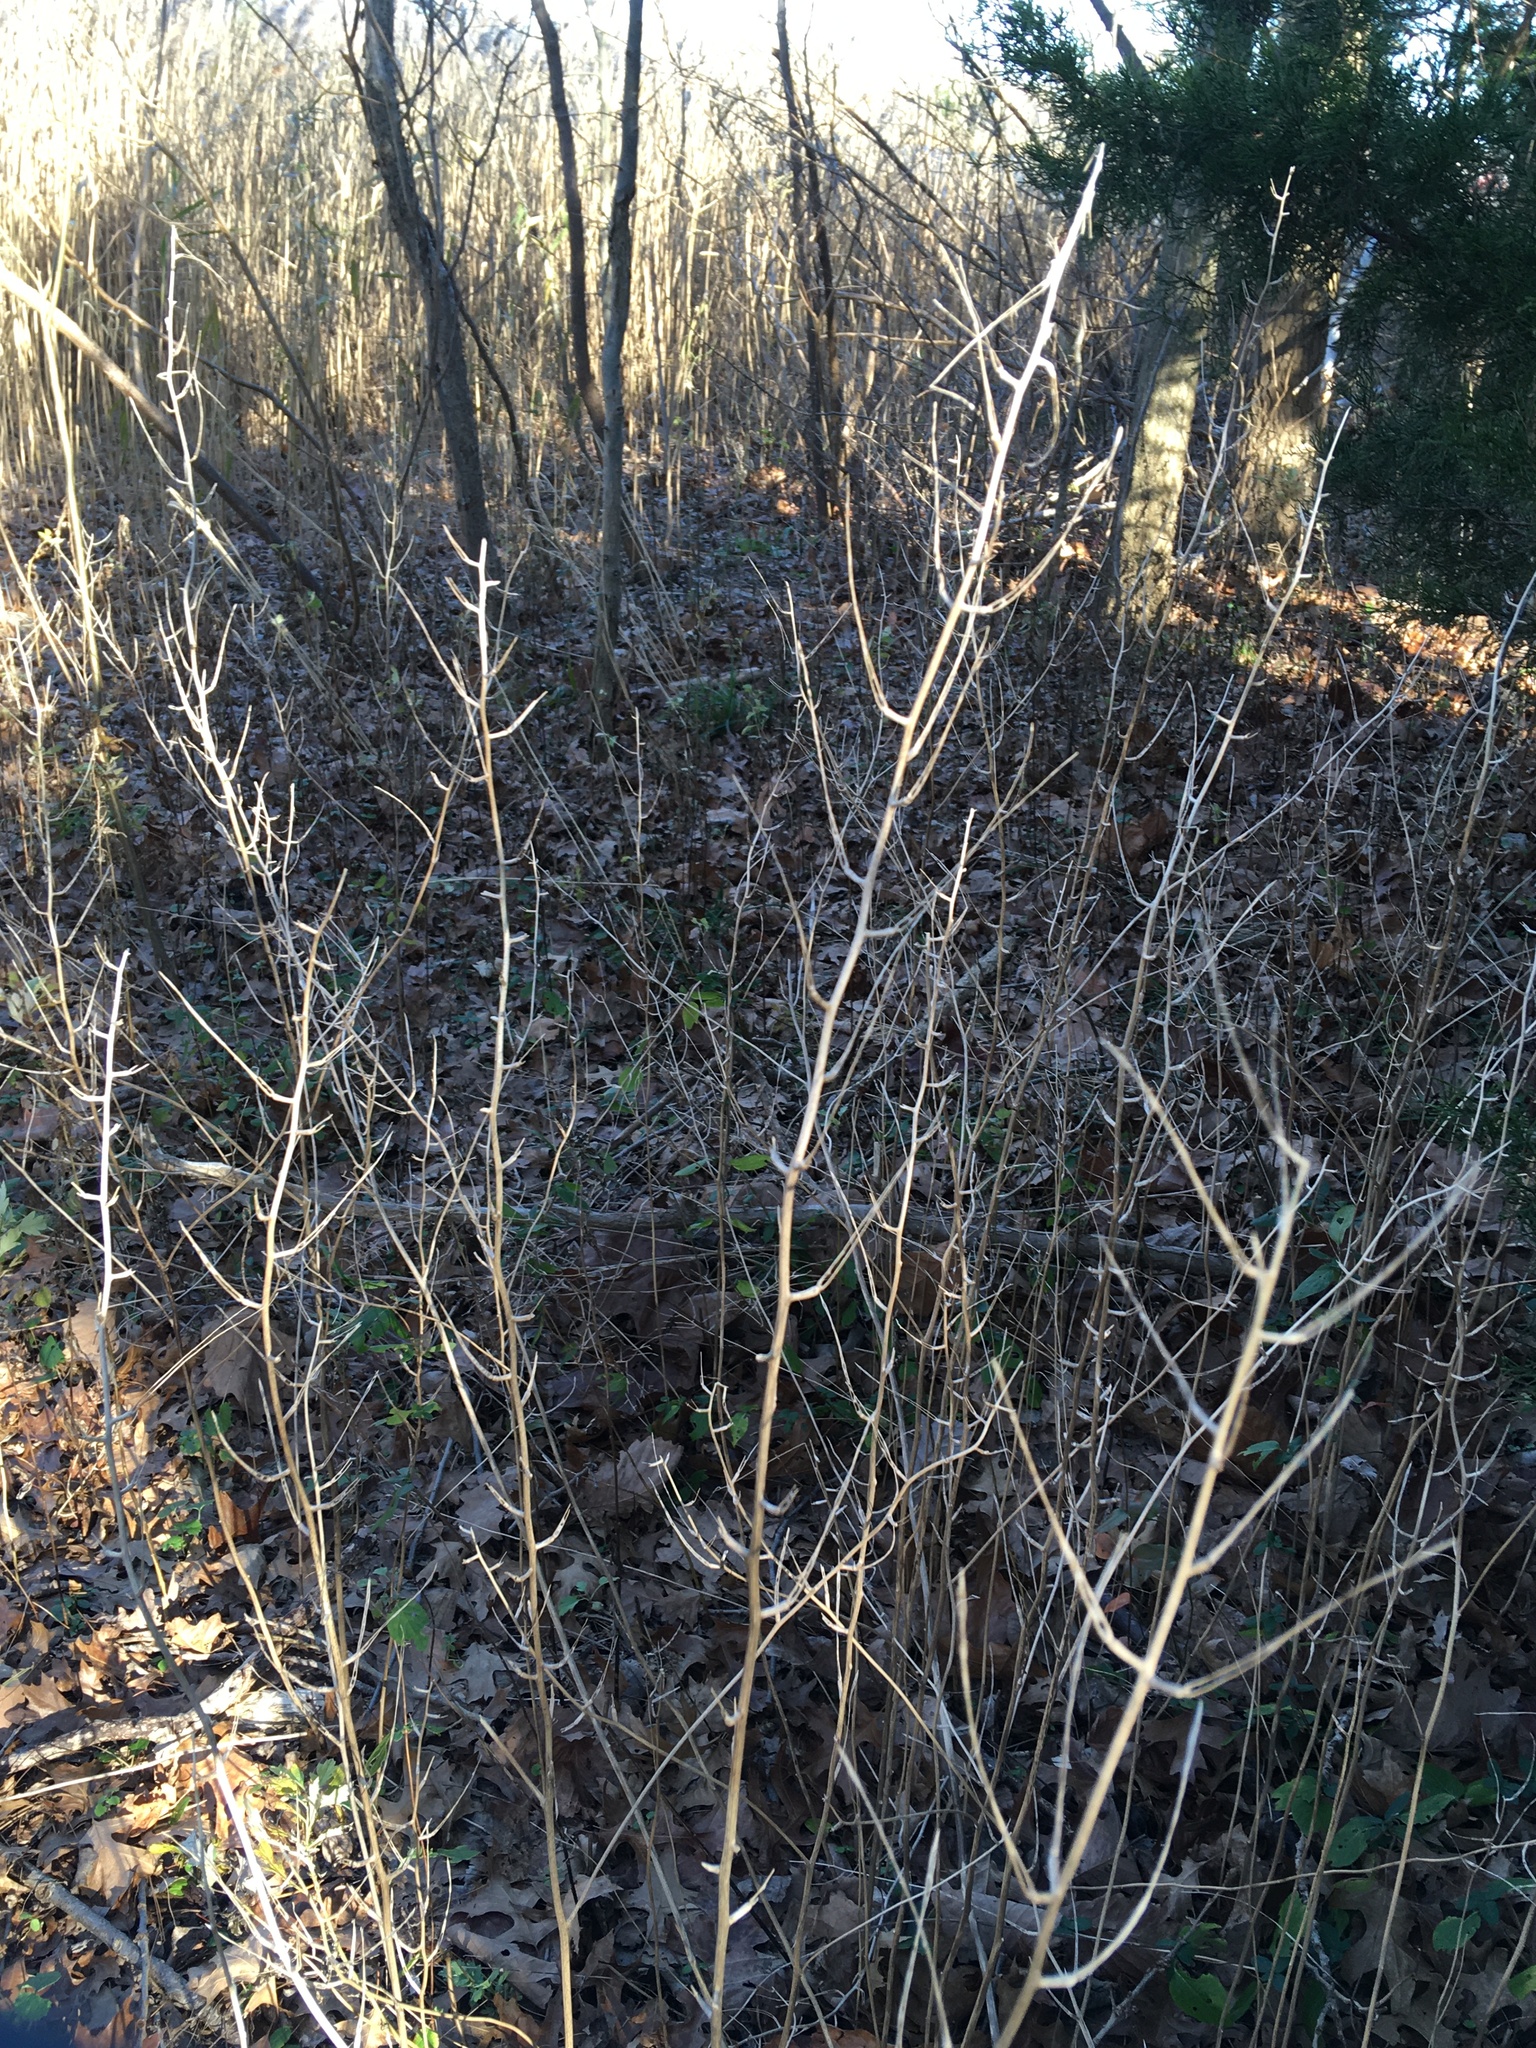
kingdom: Plantae
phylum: Tracheophyta
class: Magnoliopsida
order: Brassicales
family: Brassicaceae
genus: Alliaria
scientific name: Alliaria petiolata
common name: Garlic mustard
